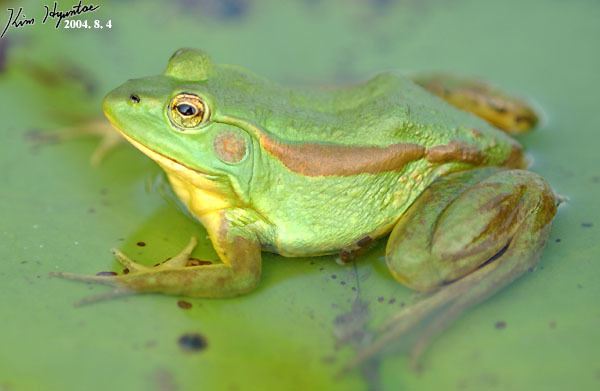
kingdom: Animalia
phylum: Chordata
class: Amphibia
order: Anura
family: Ranidae
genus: Pelophylax
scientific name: Pelophylax chosenicus
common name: Gold-spotted pond frog
